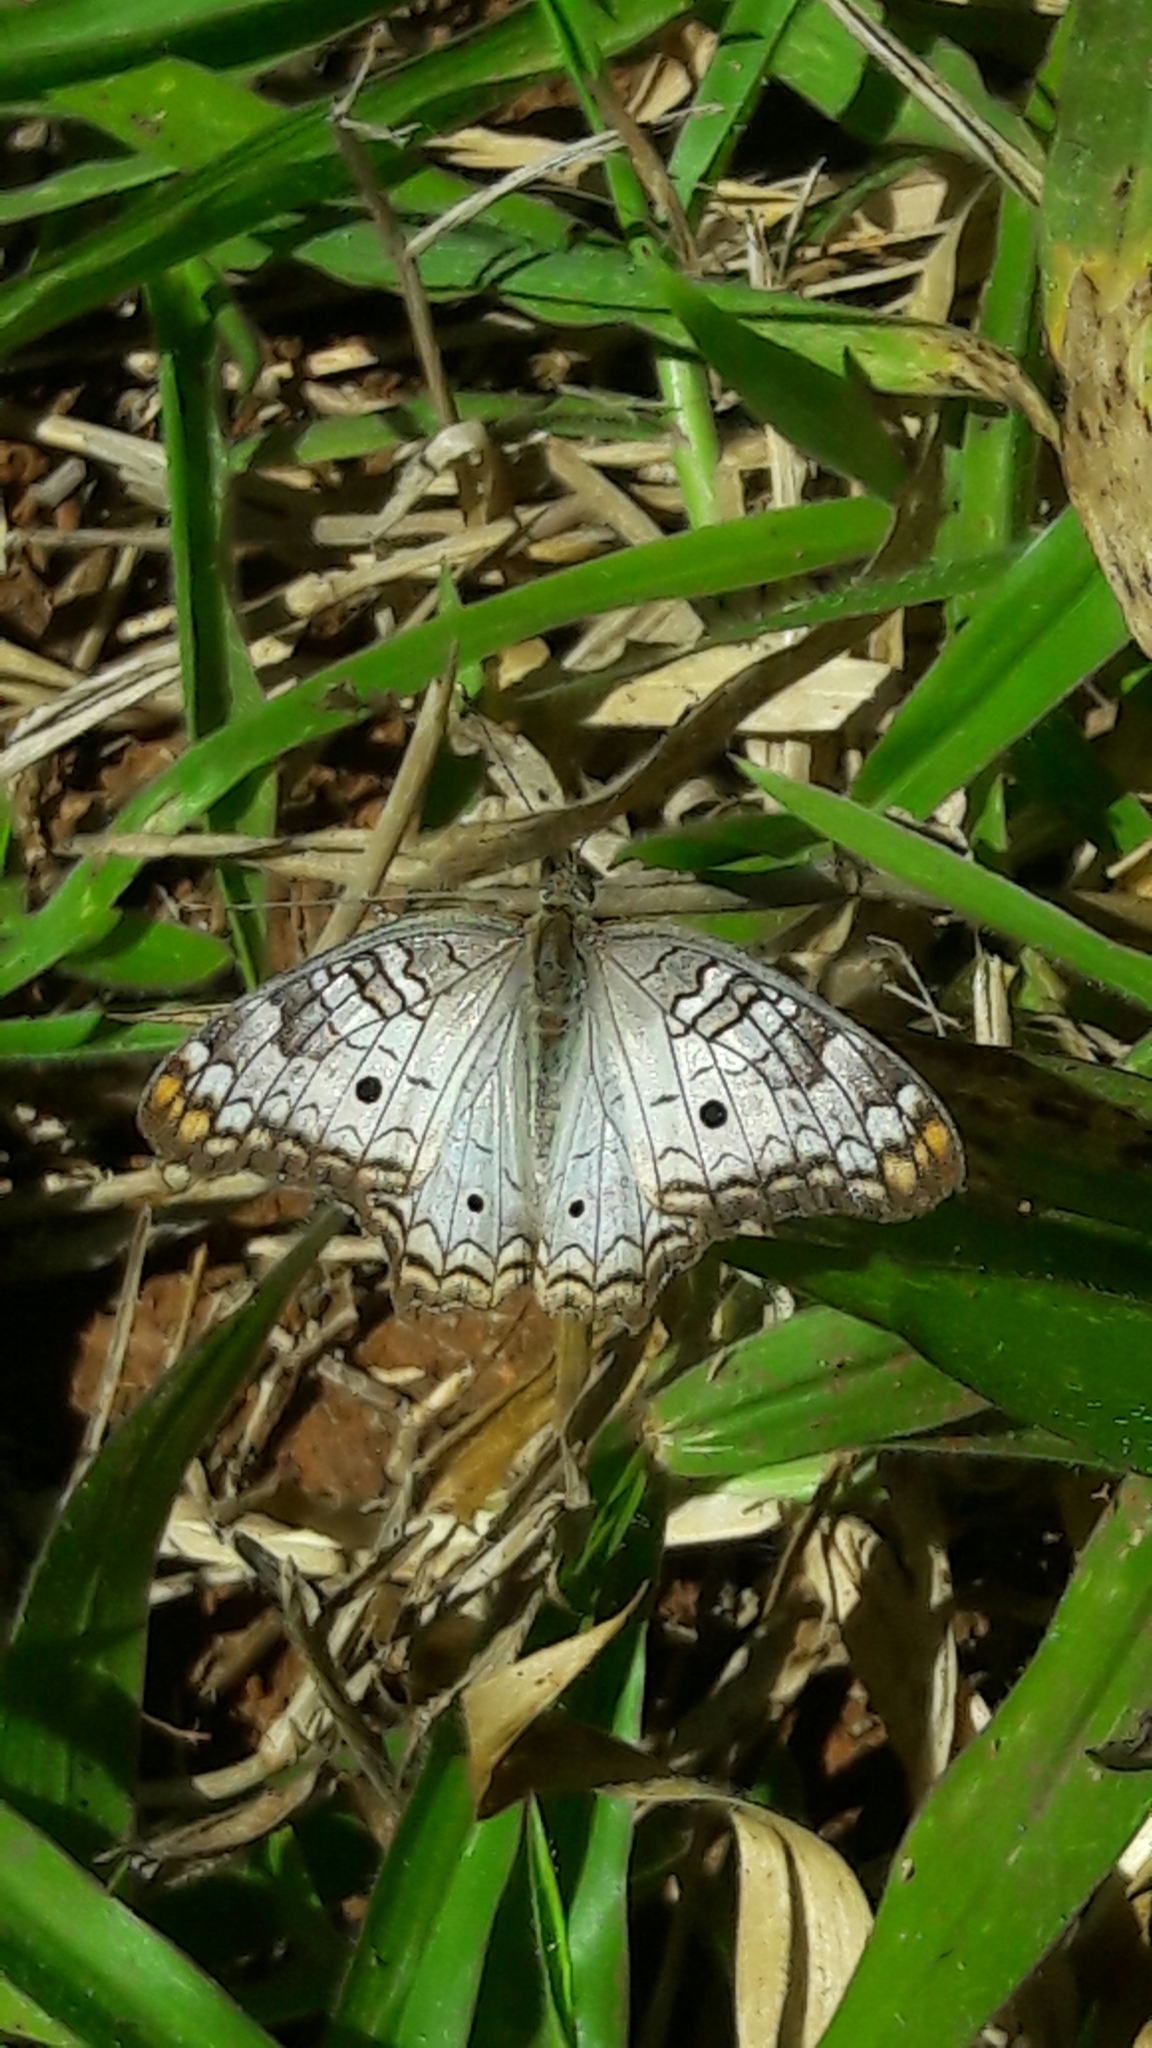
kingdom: Animalia
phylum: Arthropoda
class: Insecta
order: Lepidoptera
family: Nymphalidae
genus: Anartia
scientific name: Anartia jatrophae
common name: White peacock
